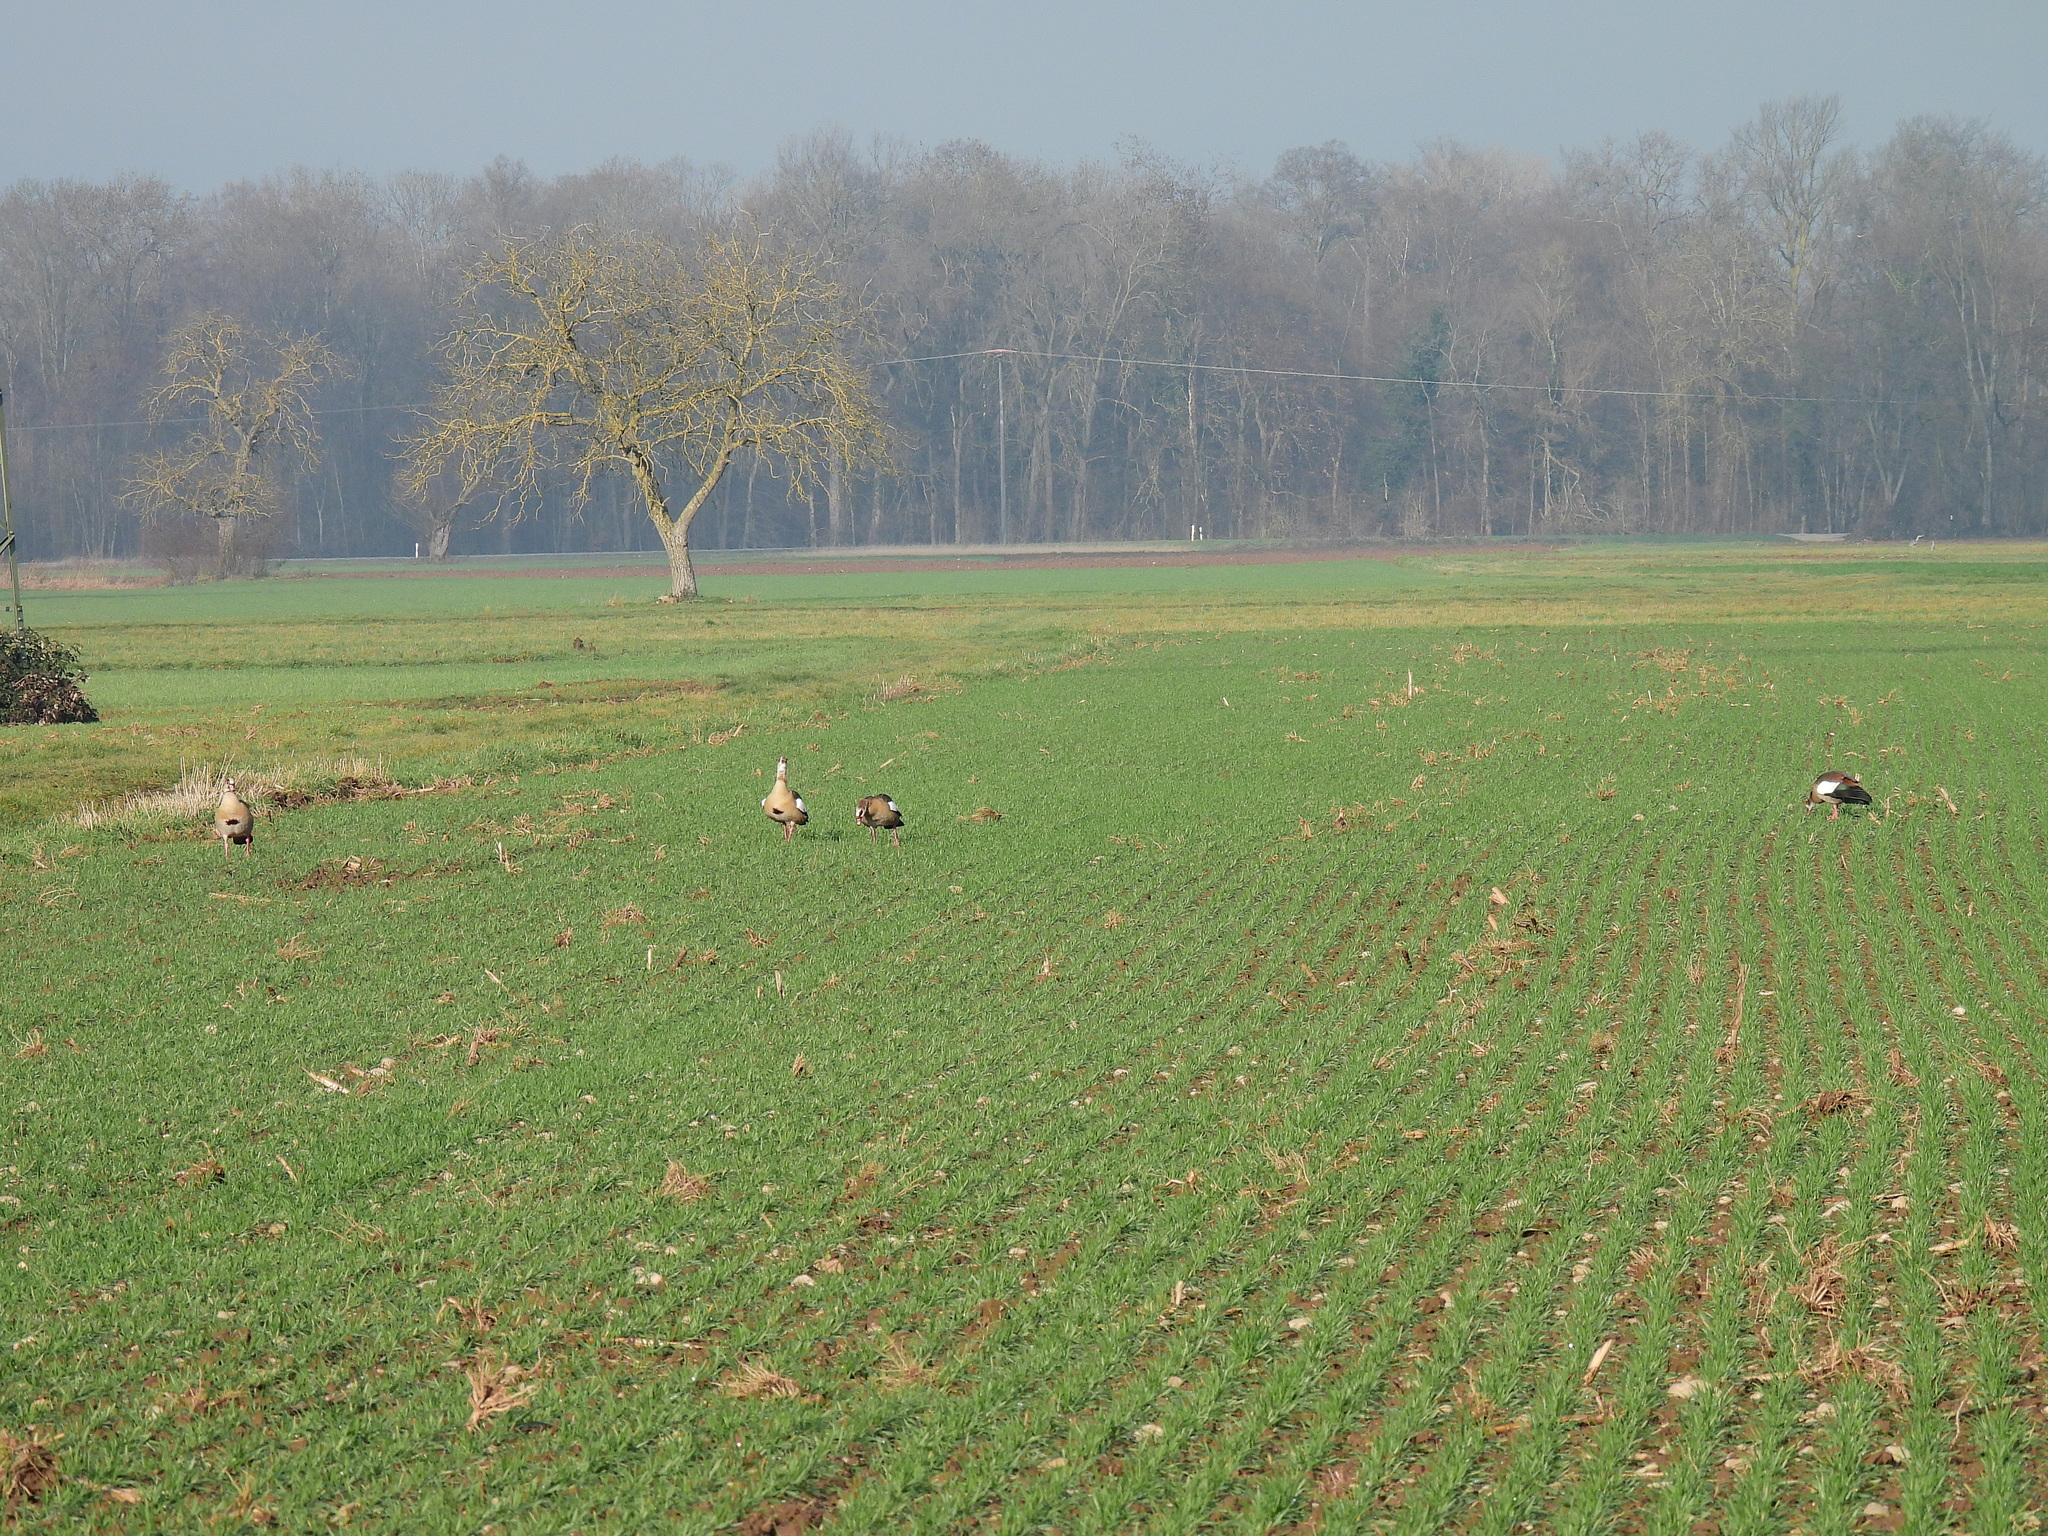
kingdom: Animalia
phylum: Chordata
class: Aves
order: Anseriformes
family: Anatidae
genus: Alopochen
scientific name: Alopochen aegyptiaca
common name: Egyptian goose
